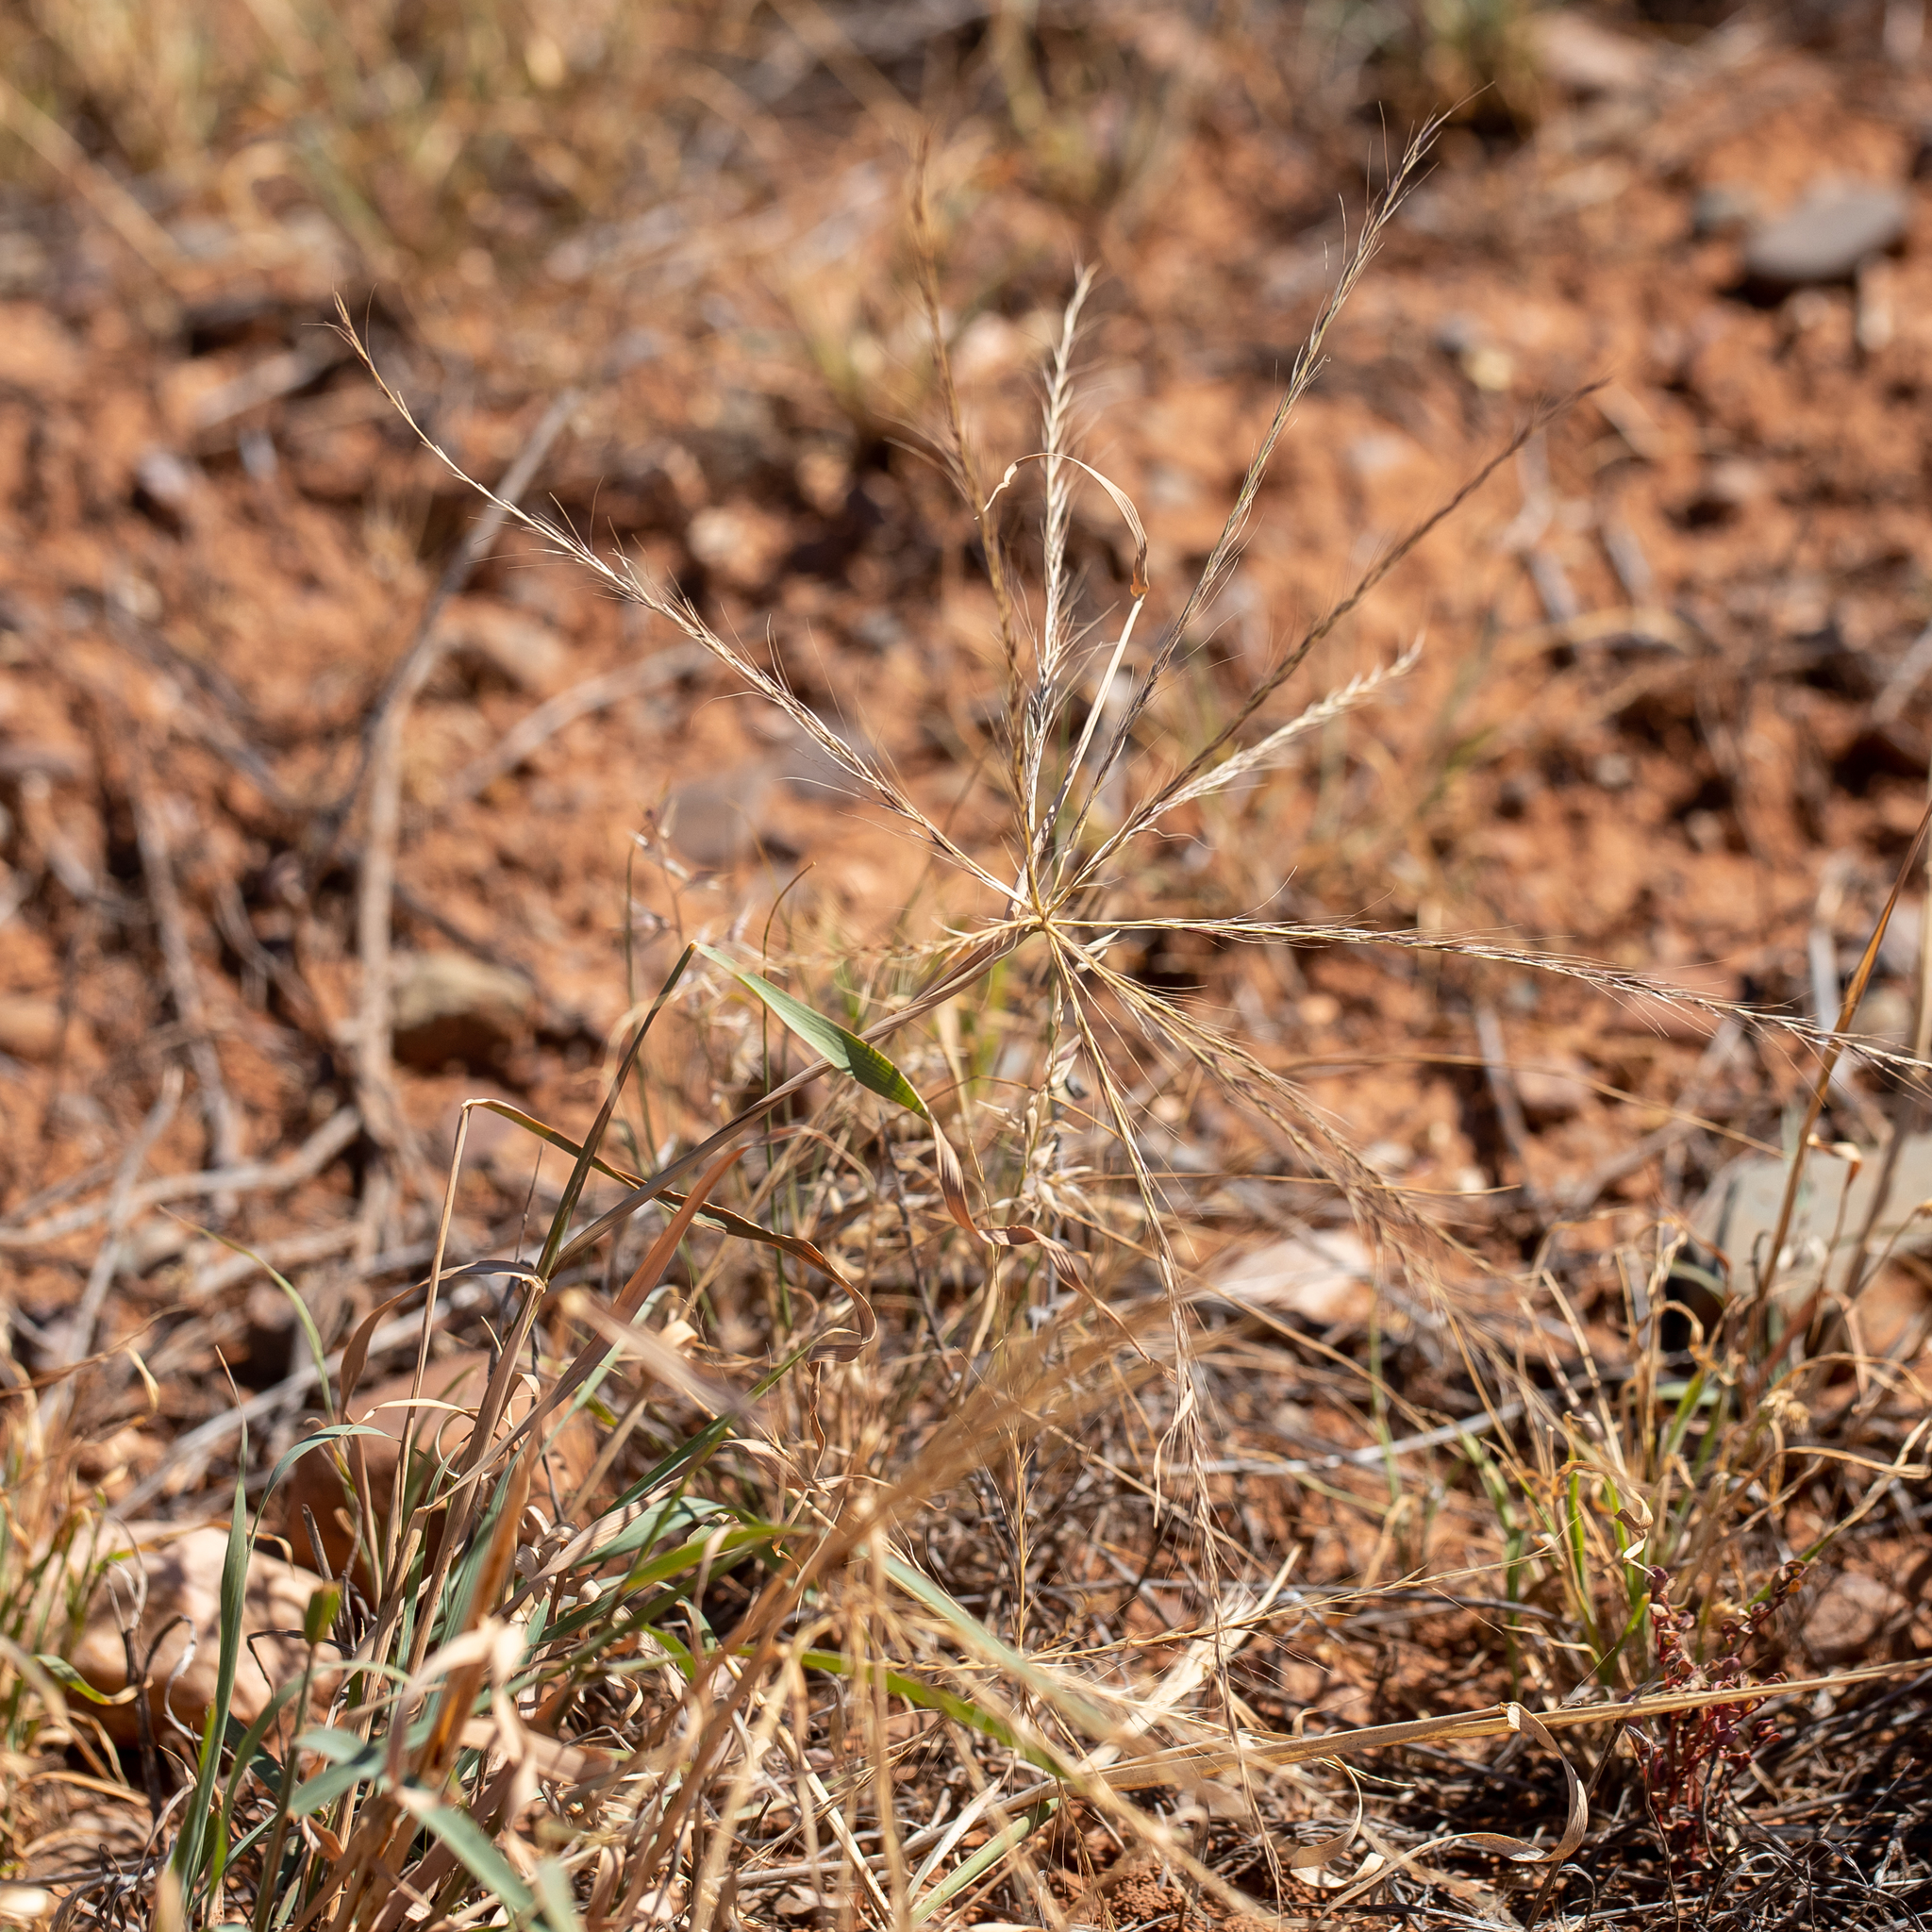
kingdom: Plantae
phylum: Tracheophyta
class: Liliopsida
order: Poales
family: Poaceae
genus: Enteropogon
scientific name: Enteropogon acicularis
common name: Curly windmill grass
